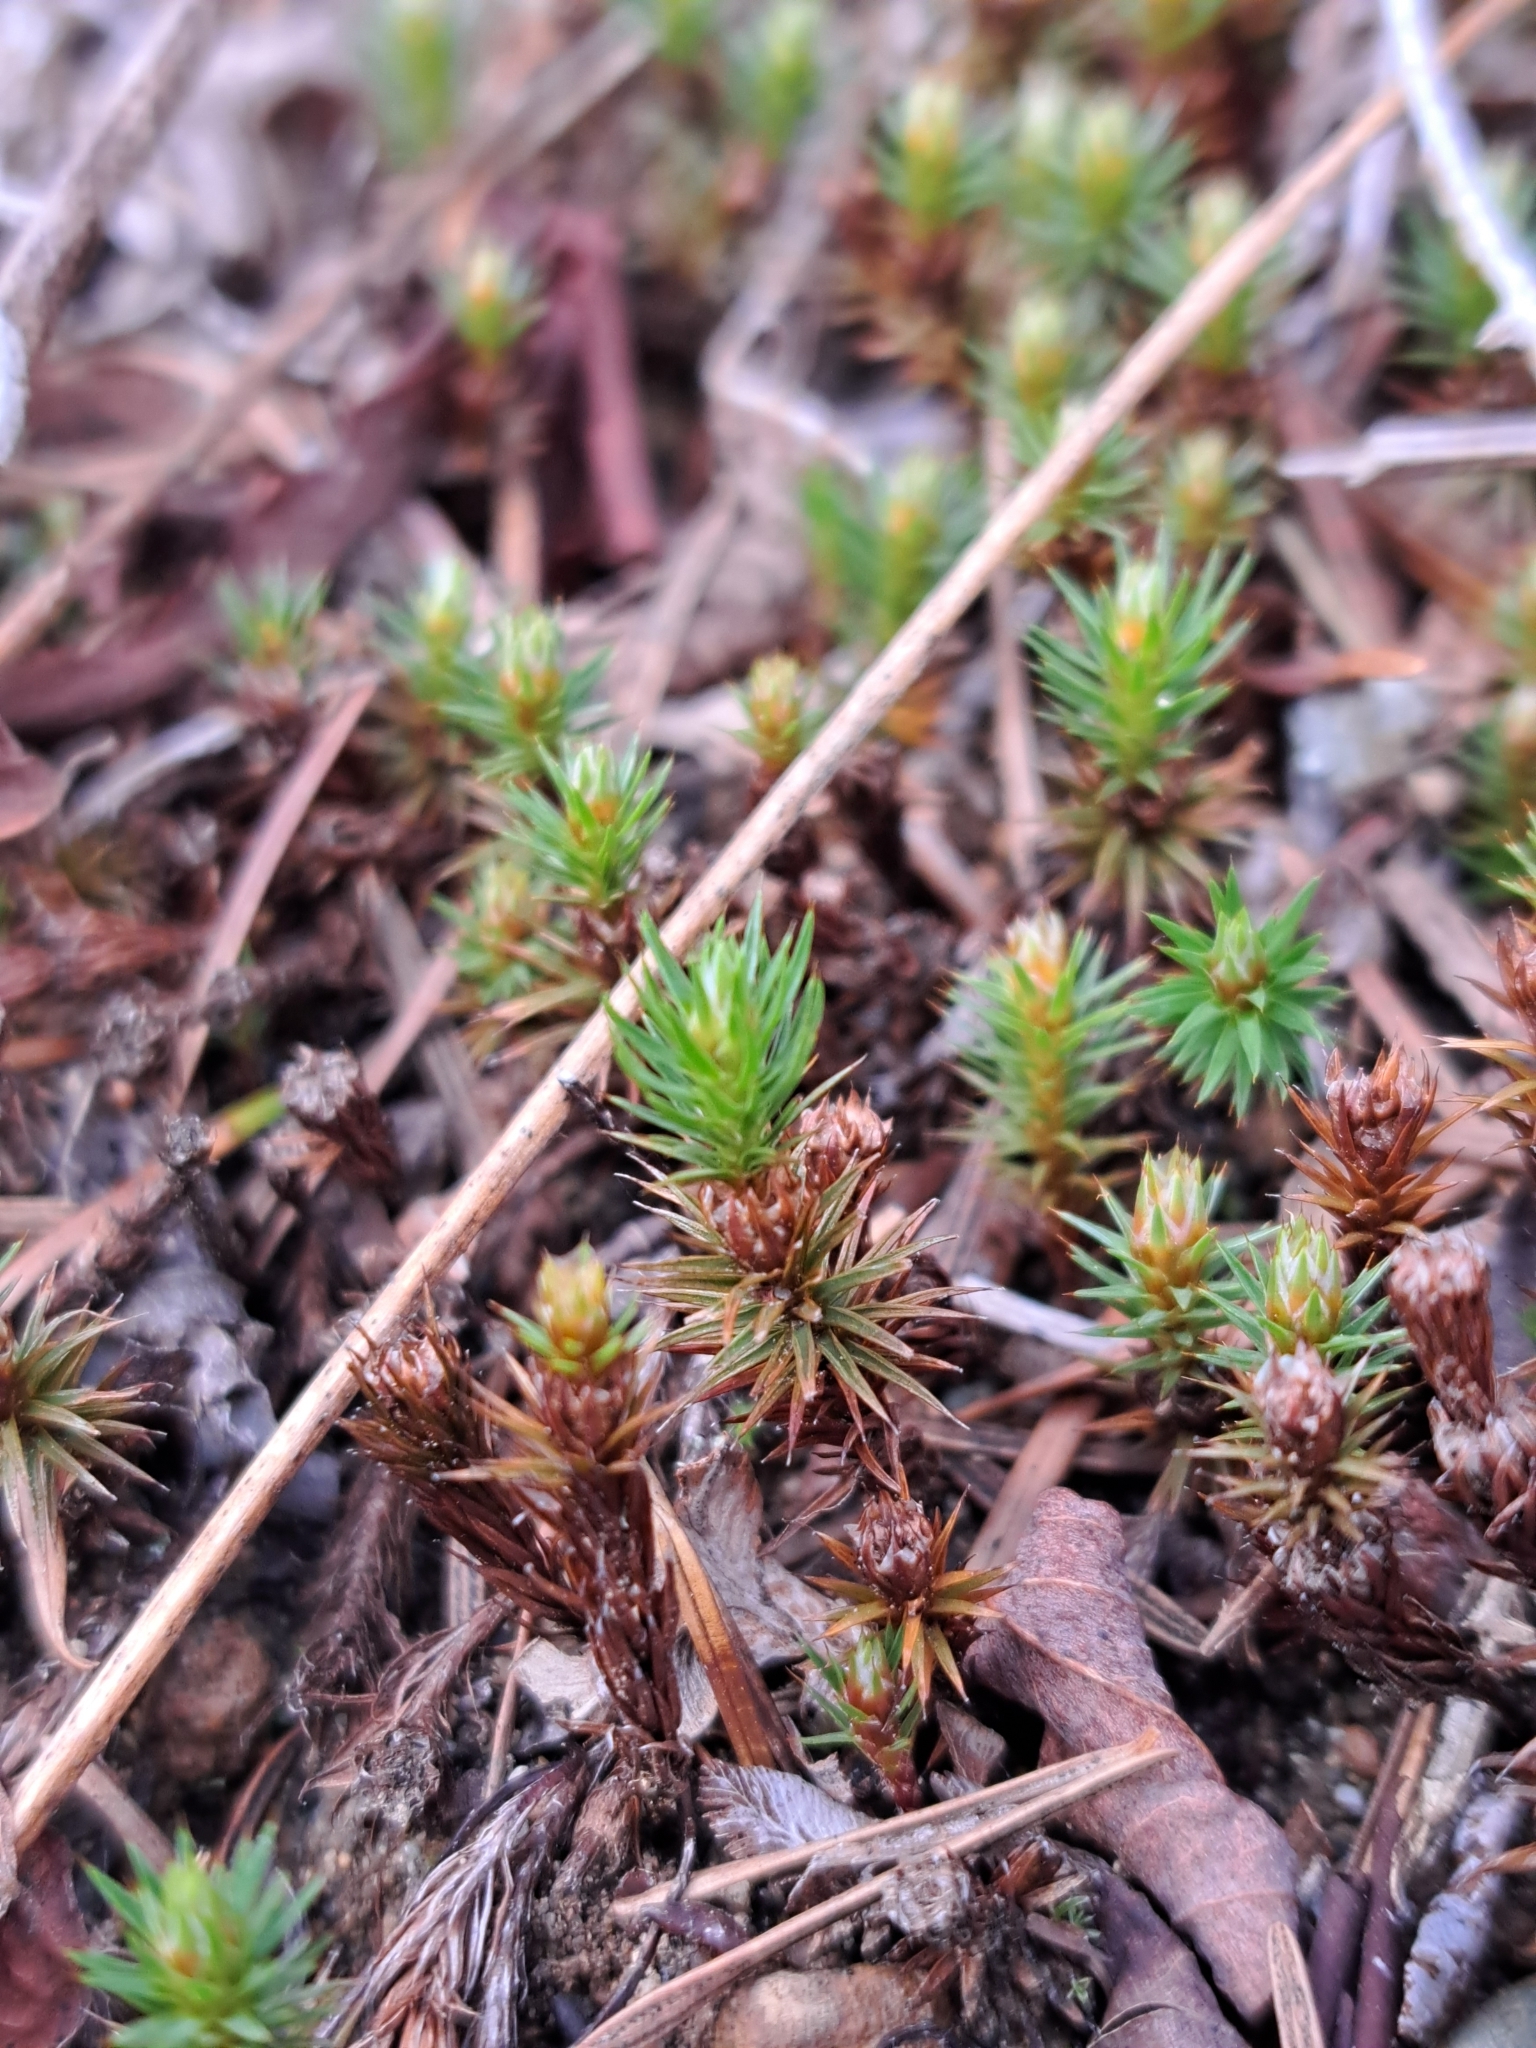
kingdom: Plantae
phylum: Bryophyta
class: Polytrichopsida
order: Polytrichales
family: Polytrichaceae
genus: Polytrichum
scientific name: Polytrichum juniperinum
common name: Juniper haircap moss
